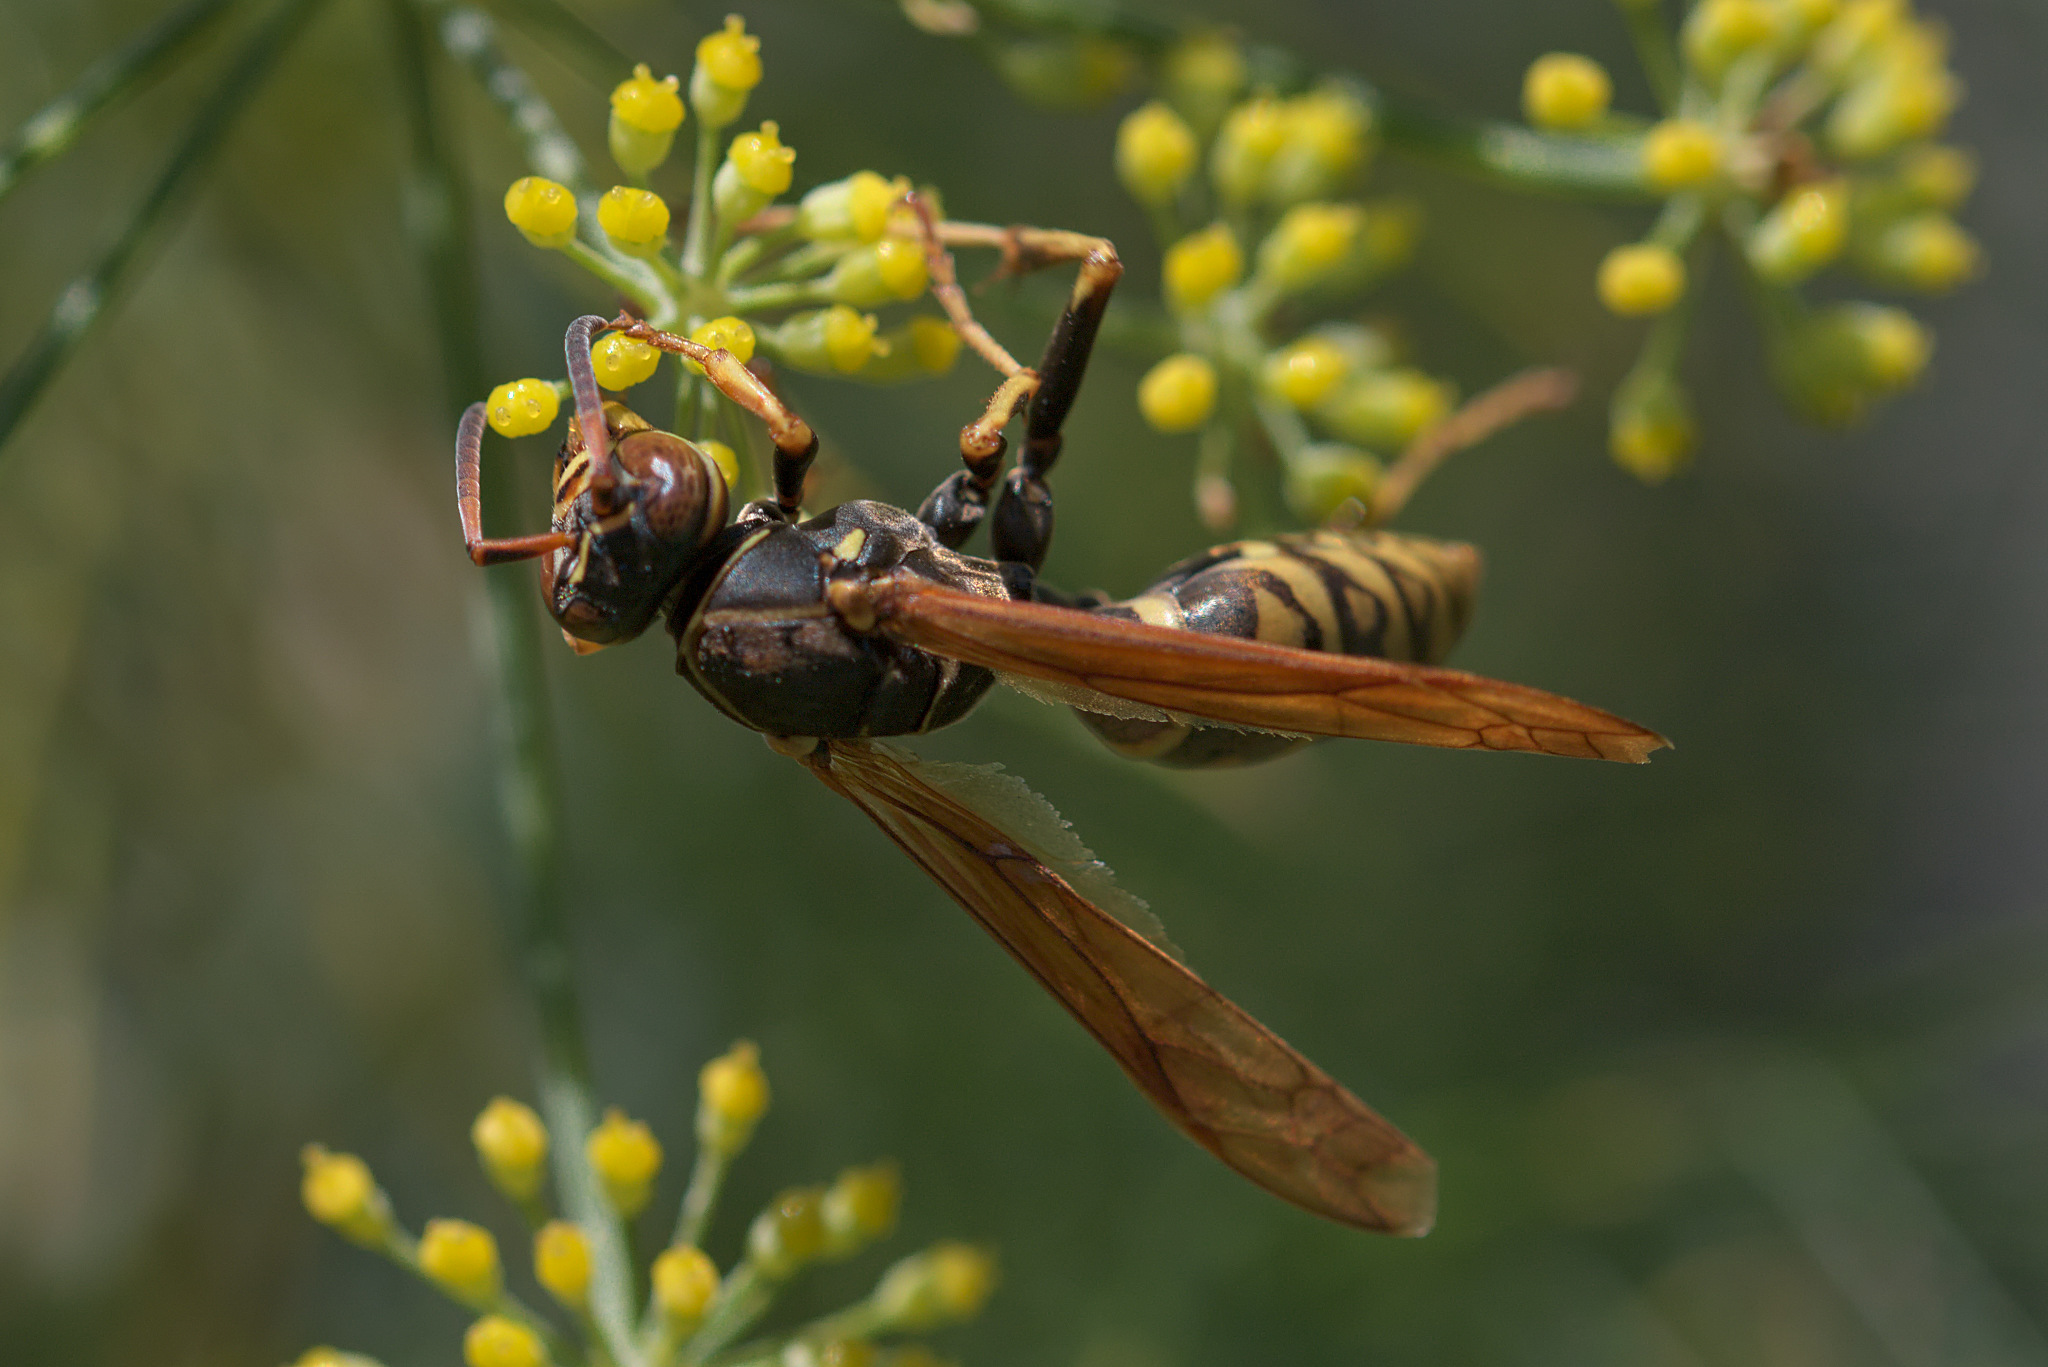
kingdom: Animalia
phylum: Arthropoda
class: Insecta
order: Hymenoptera
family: Eumenidae
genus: Polistes
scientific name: Polistes aurifer
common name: Paper wasp
